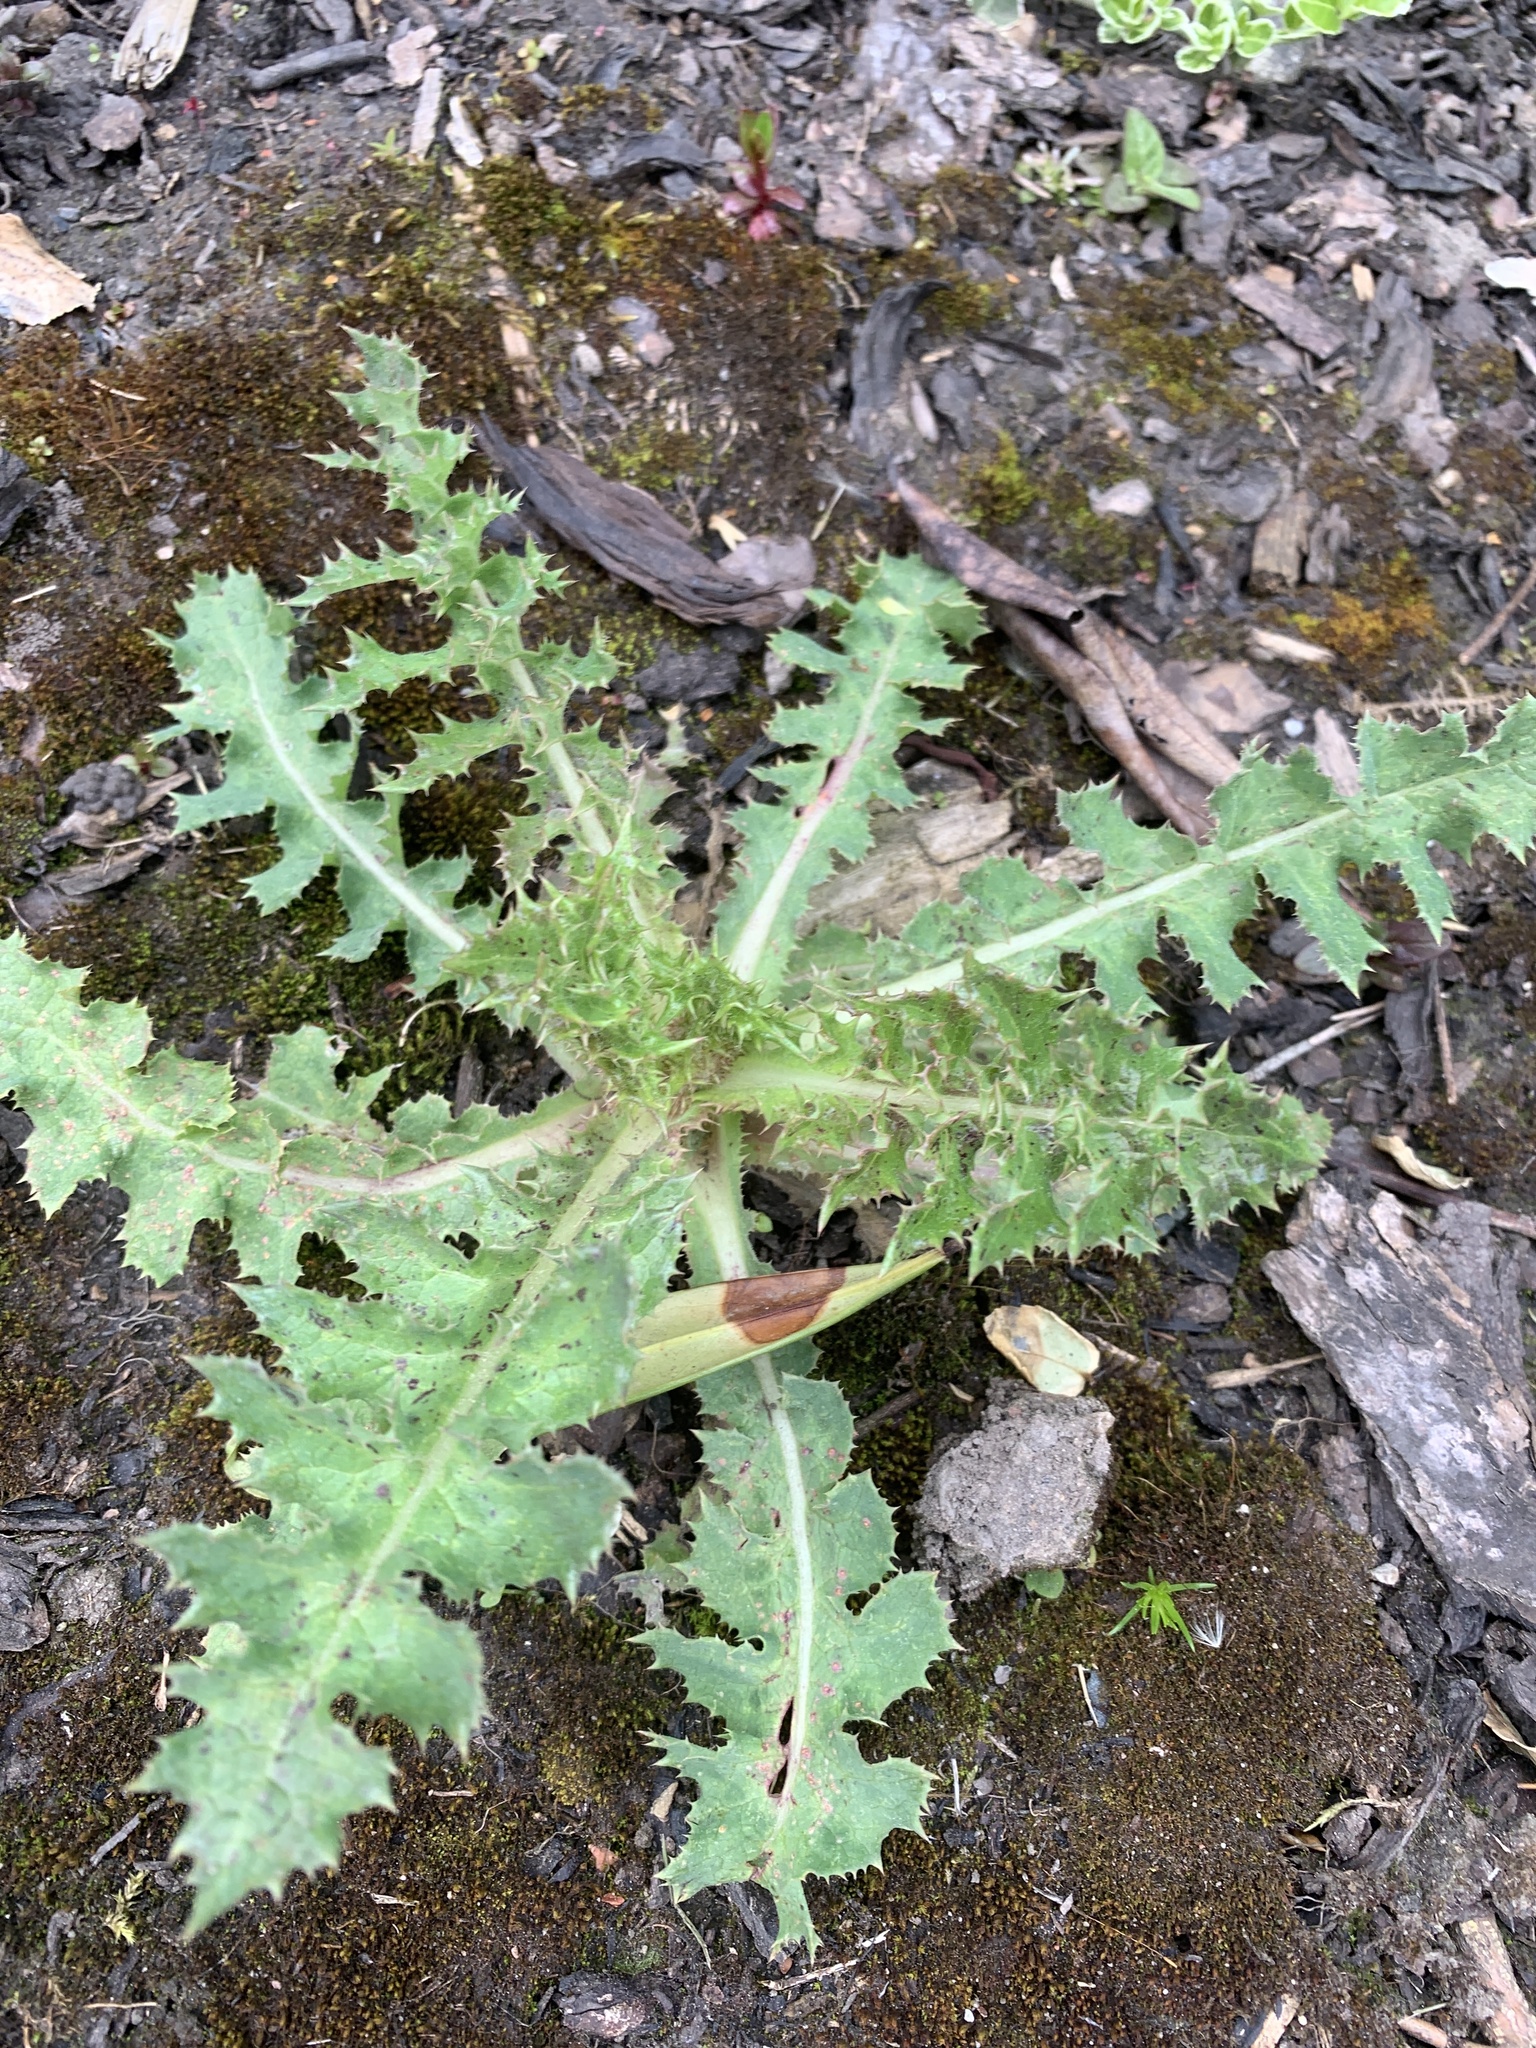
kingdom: Plantae
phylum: Tracheophyta
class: Magnoliopsida
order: Asterales
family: Asteraceae
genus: Sonchus
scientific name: Sonchus asper
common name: Prickly sow-thistle
